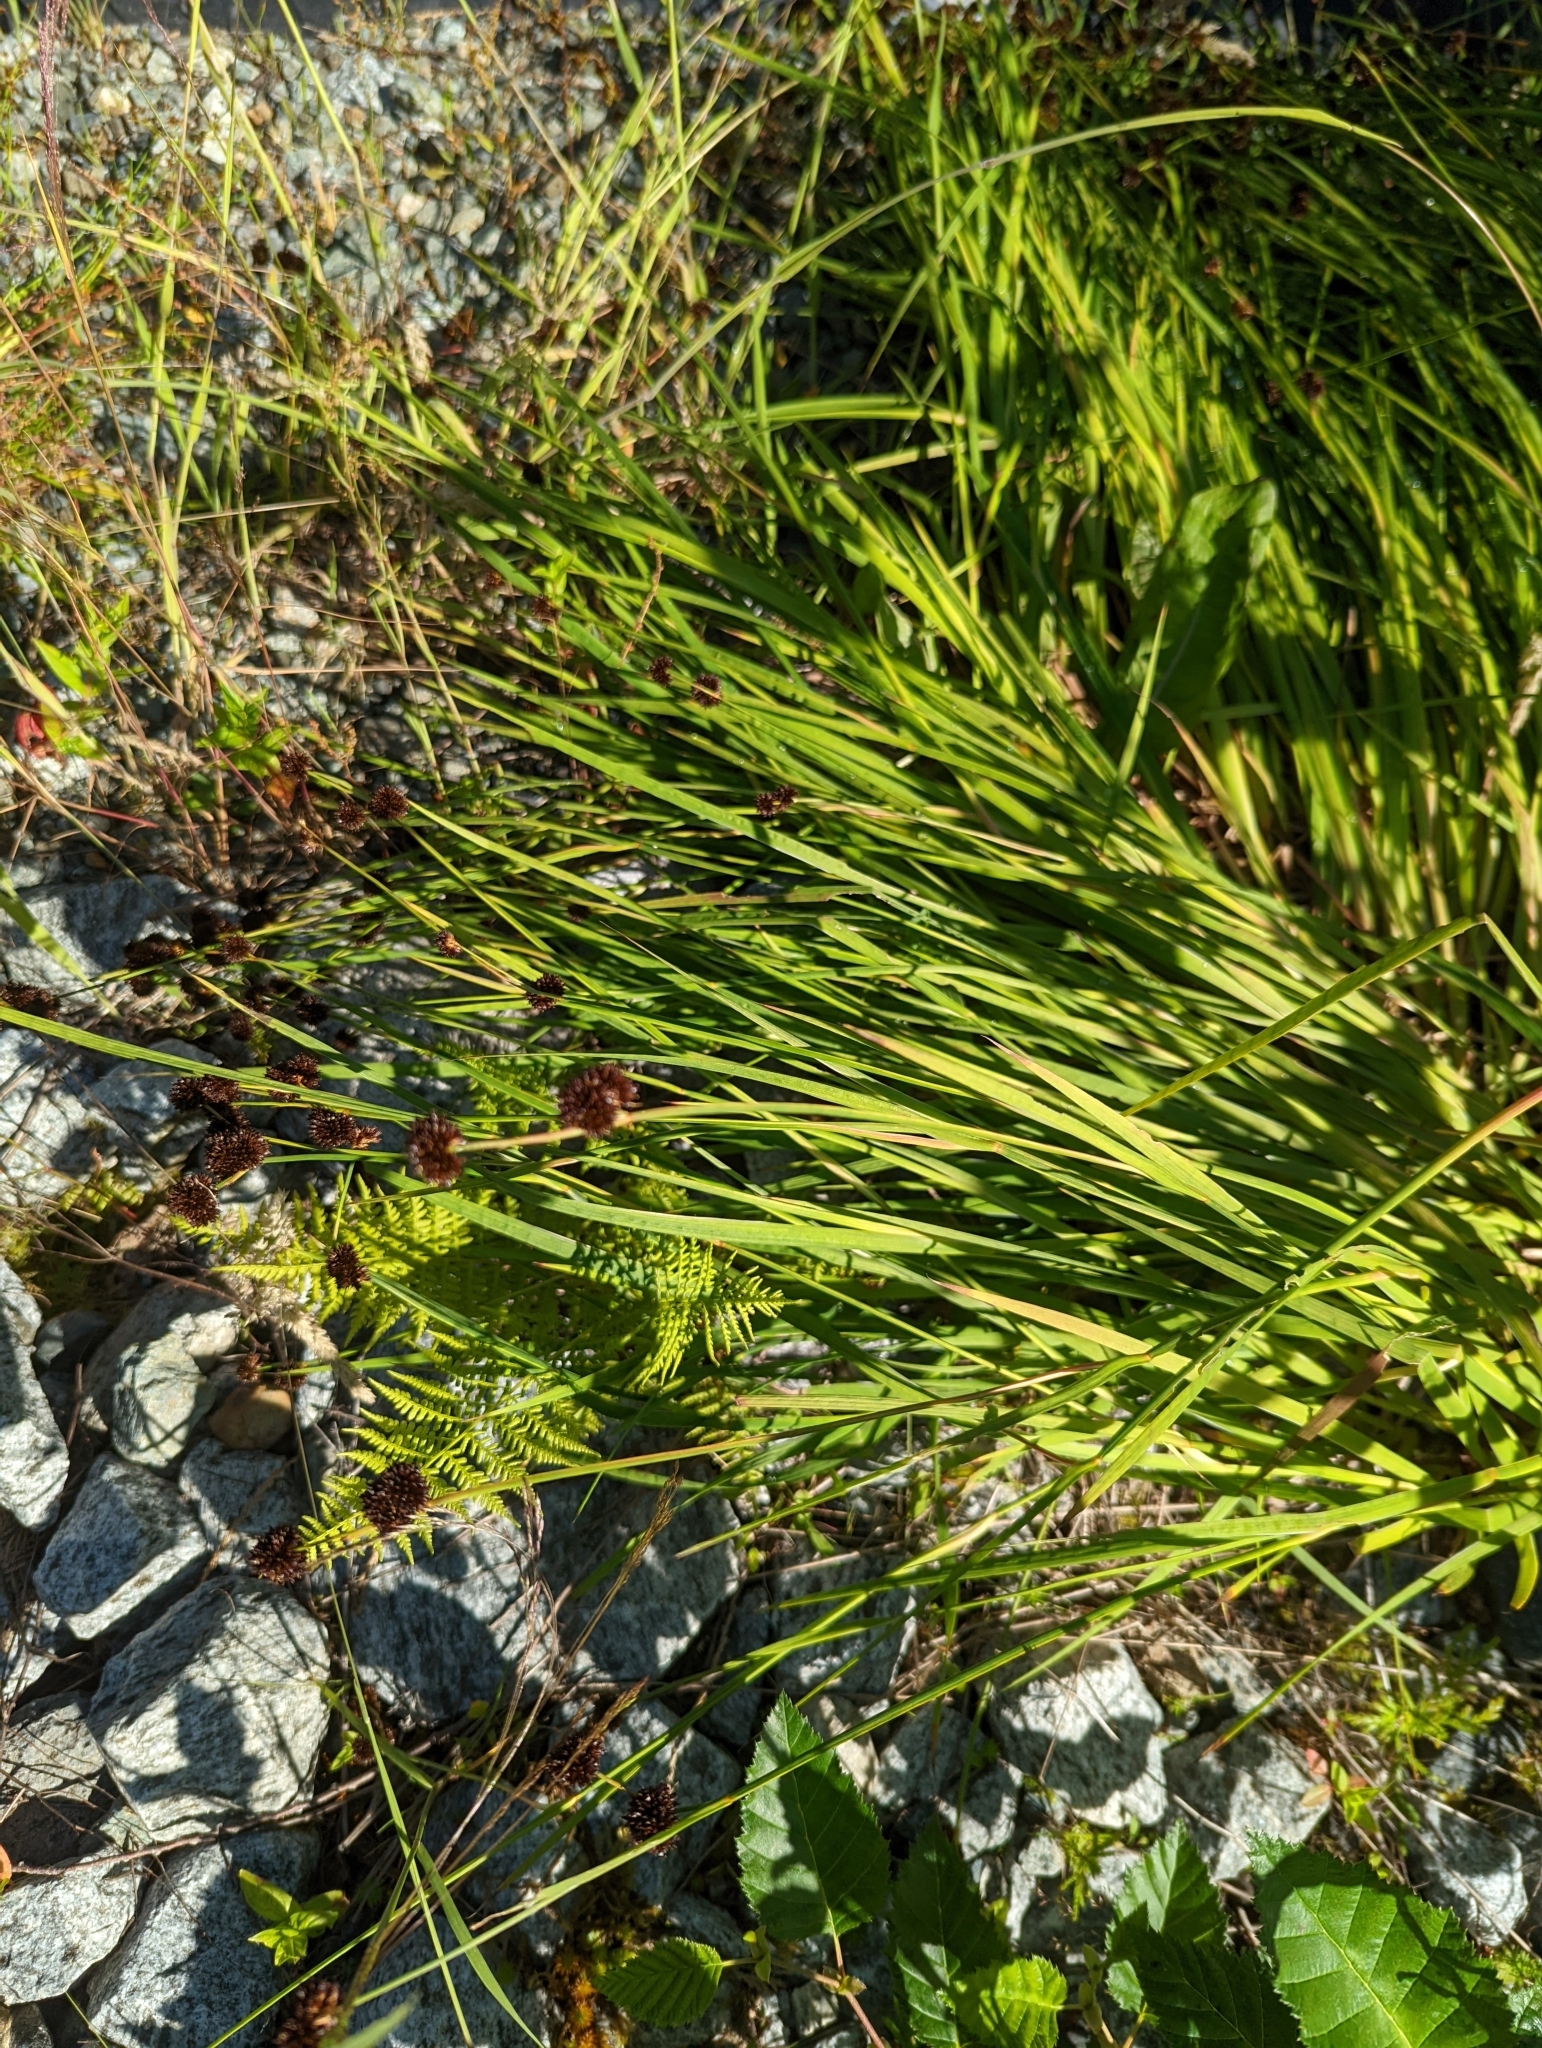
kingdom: Plantae
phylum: Tracheophyta
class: Liliopsida
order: Poales
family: Juncaceae
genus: Juncus
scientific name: Juncus ensifolius
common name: Sword-leaved rush
